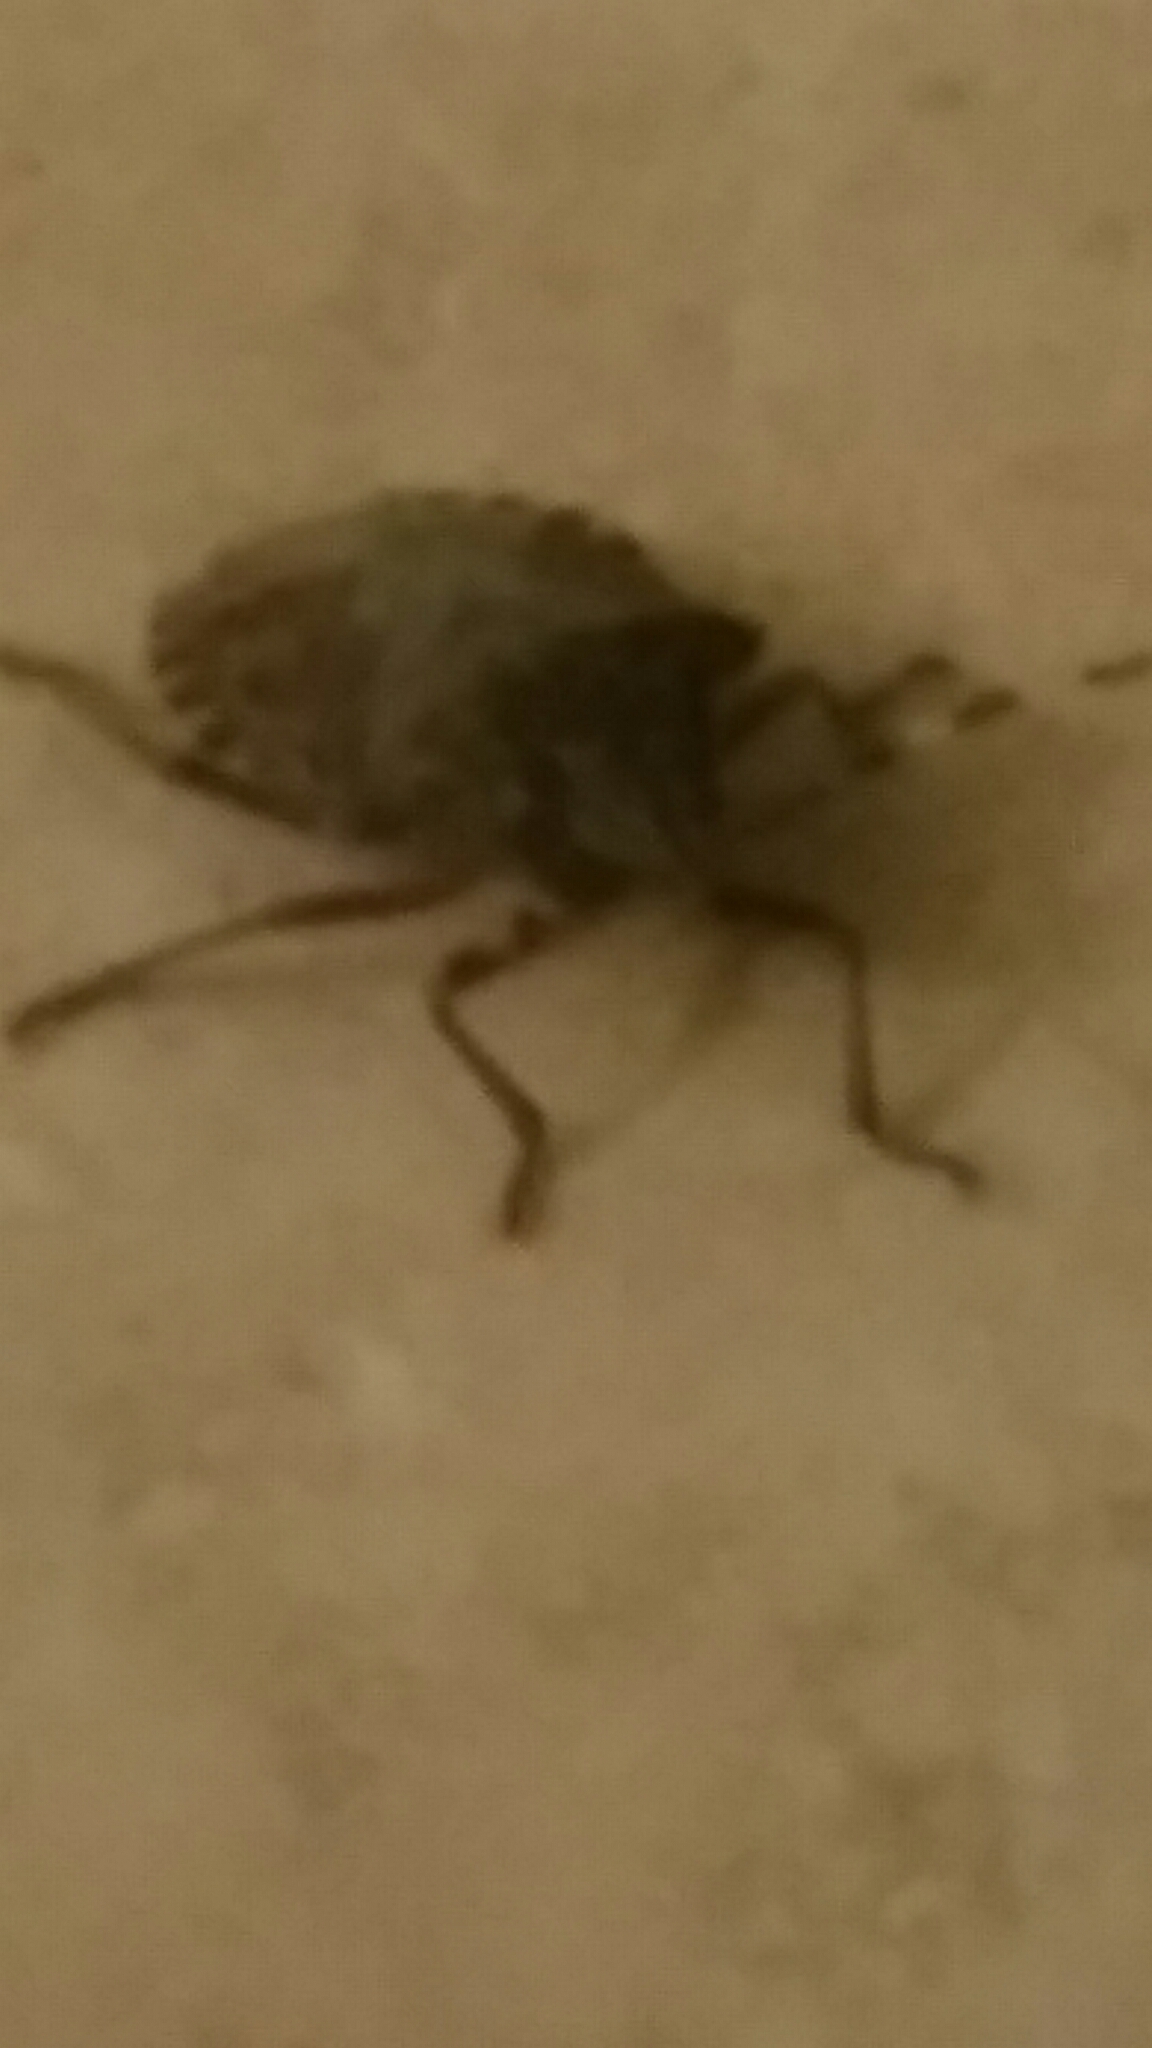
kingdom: Animalia
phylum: Arthropoda
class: Insecta
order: Hemiptera
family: Pentatomidae
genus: Rhaphigaster
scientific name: Rhaphigaster nebulosa
